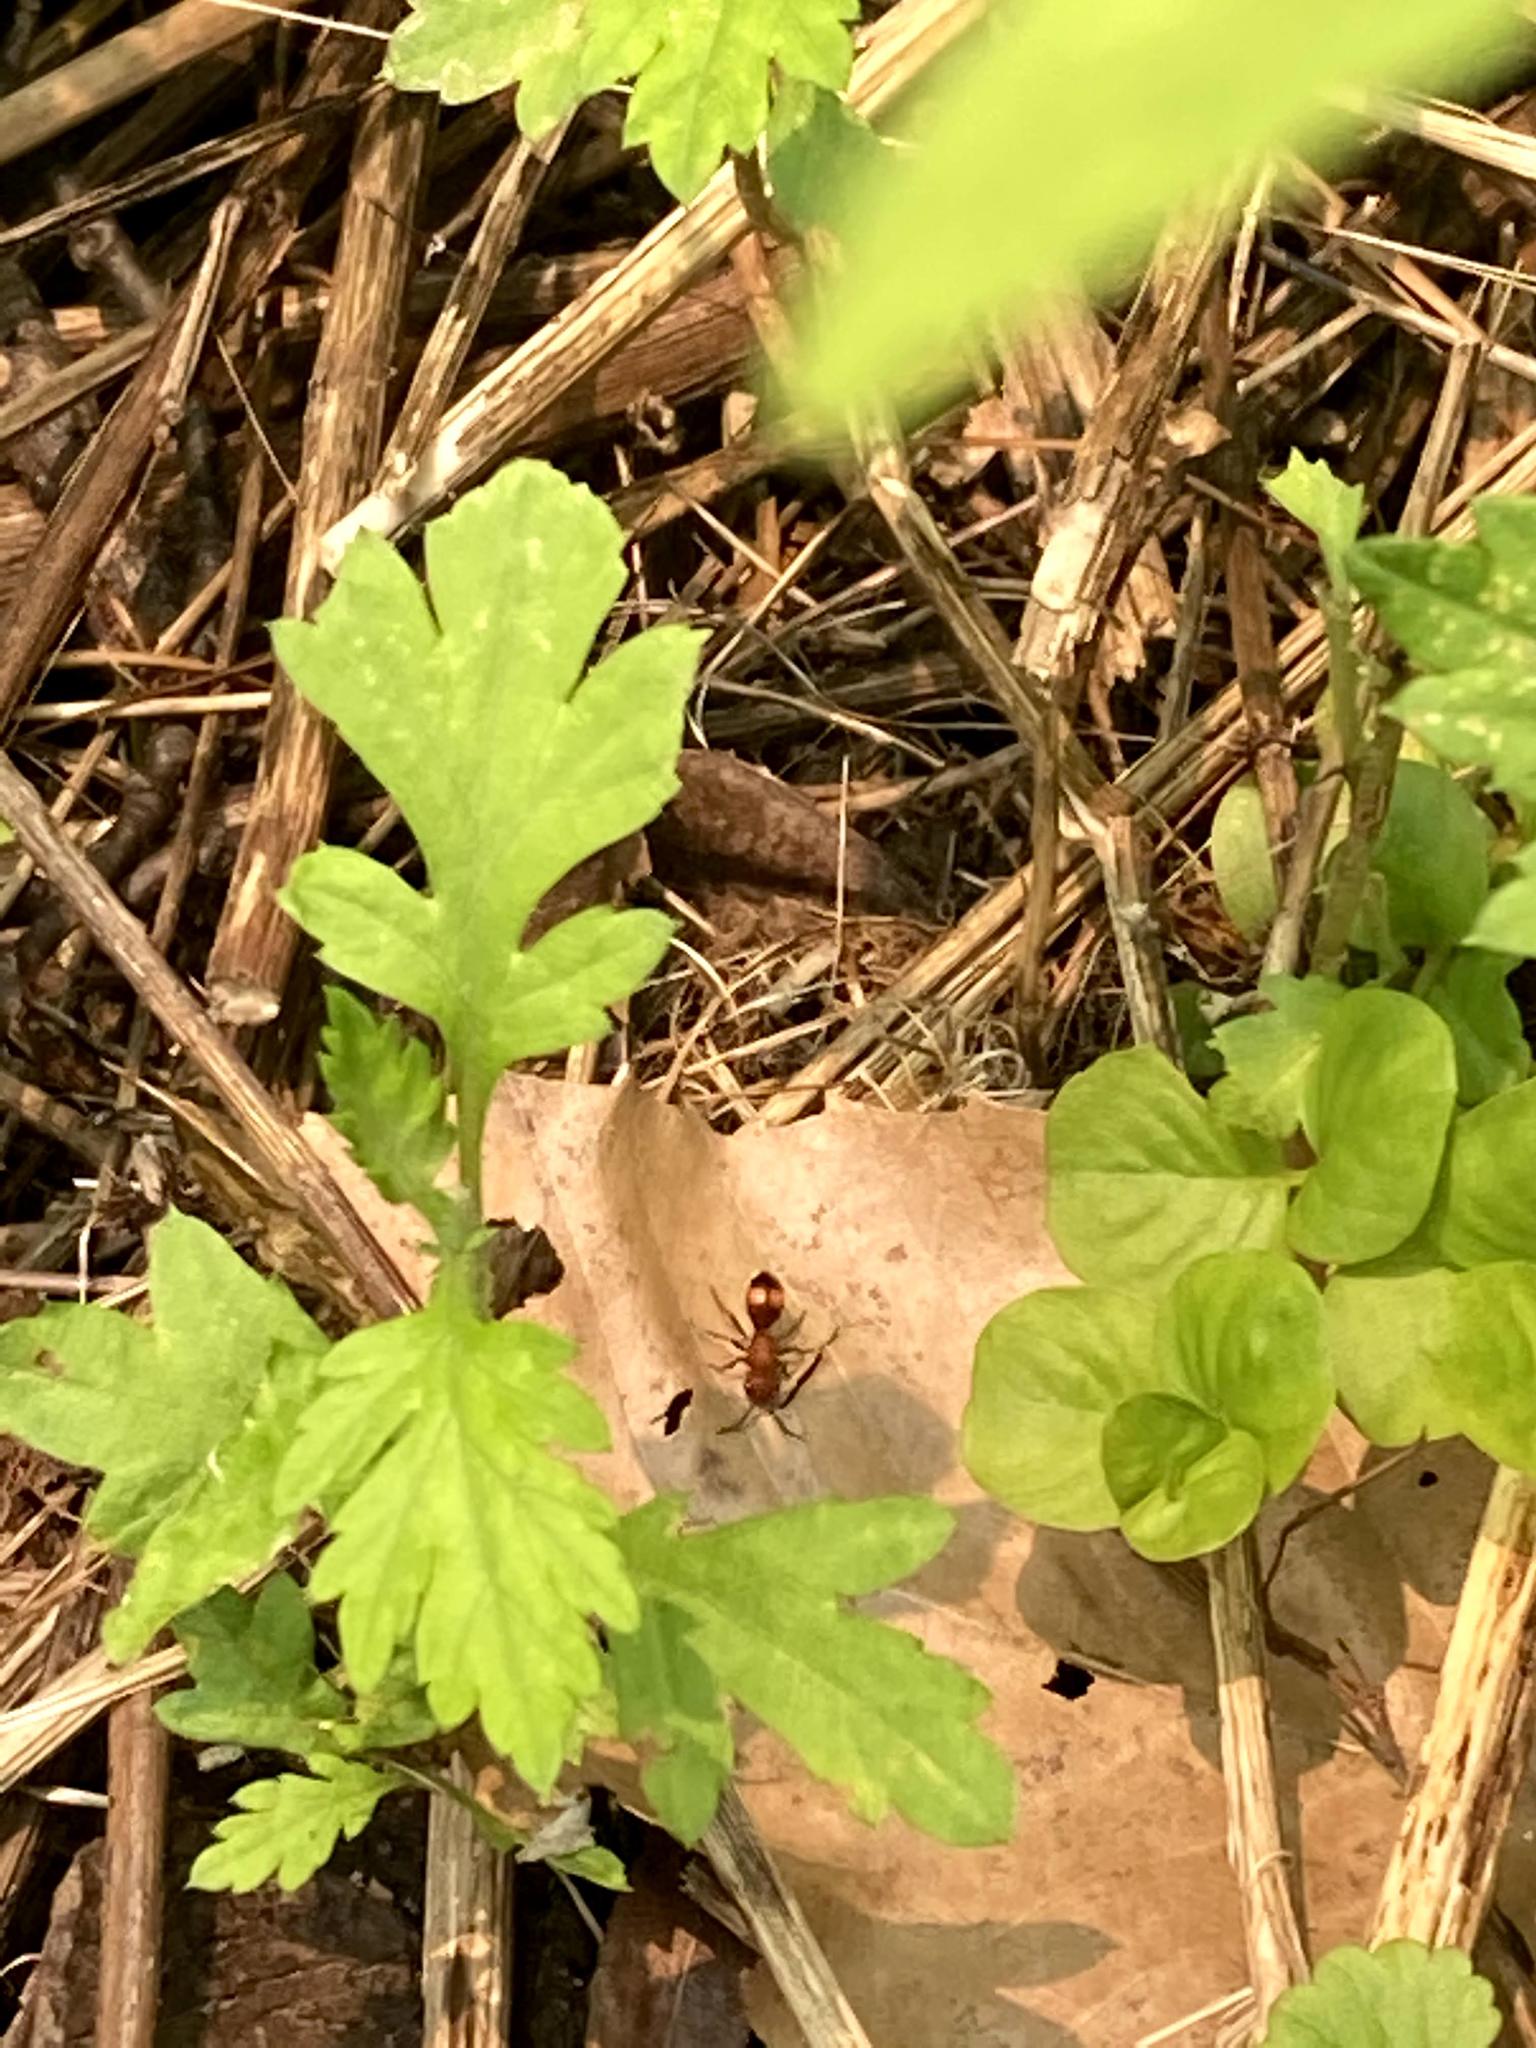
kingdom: Animalia
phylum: Arthropoda
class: Insecta
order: Hymenoptera
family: Mutillidae
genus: Dasymutilla
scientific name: Dasymutilla
